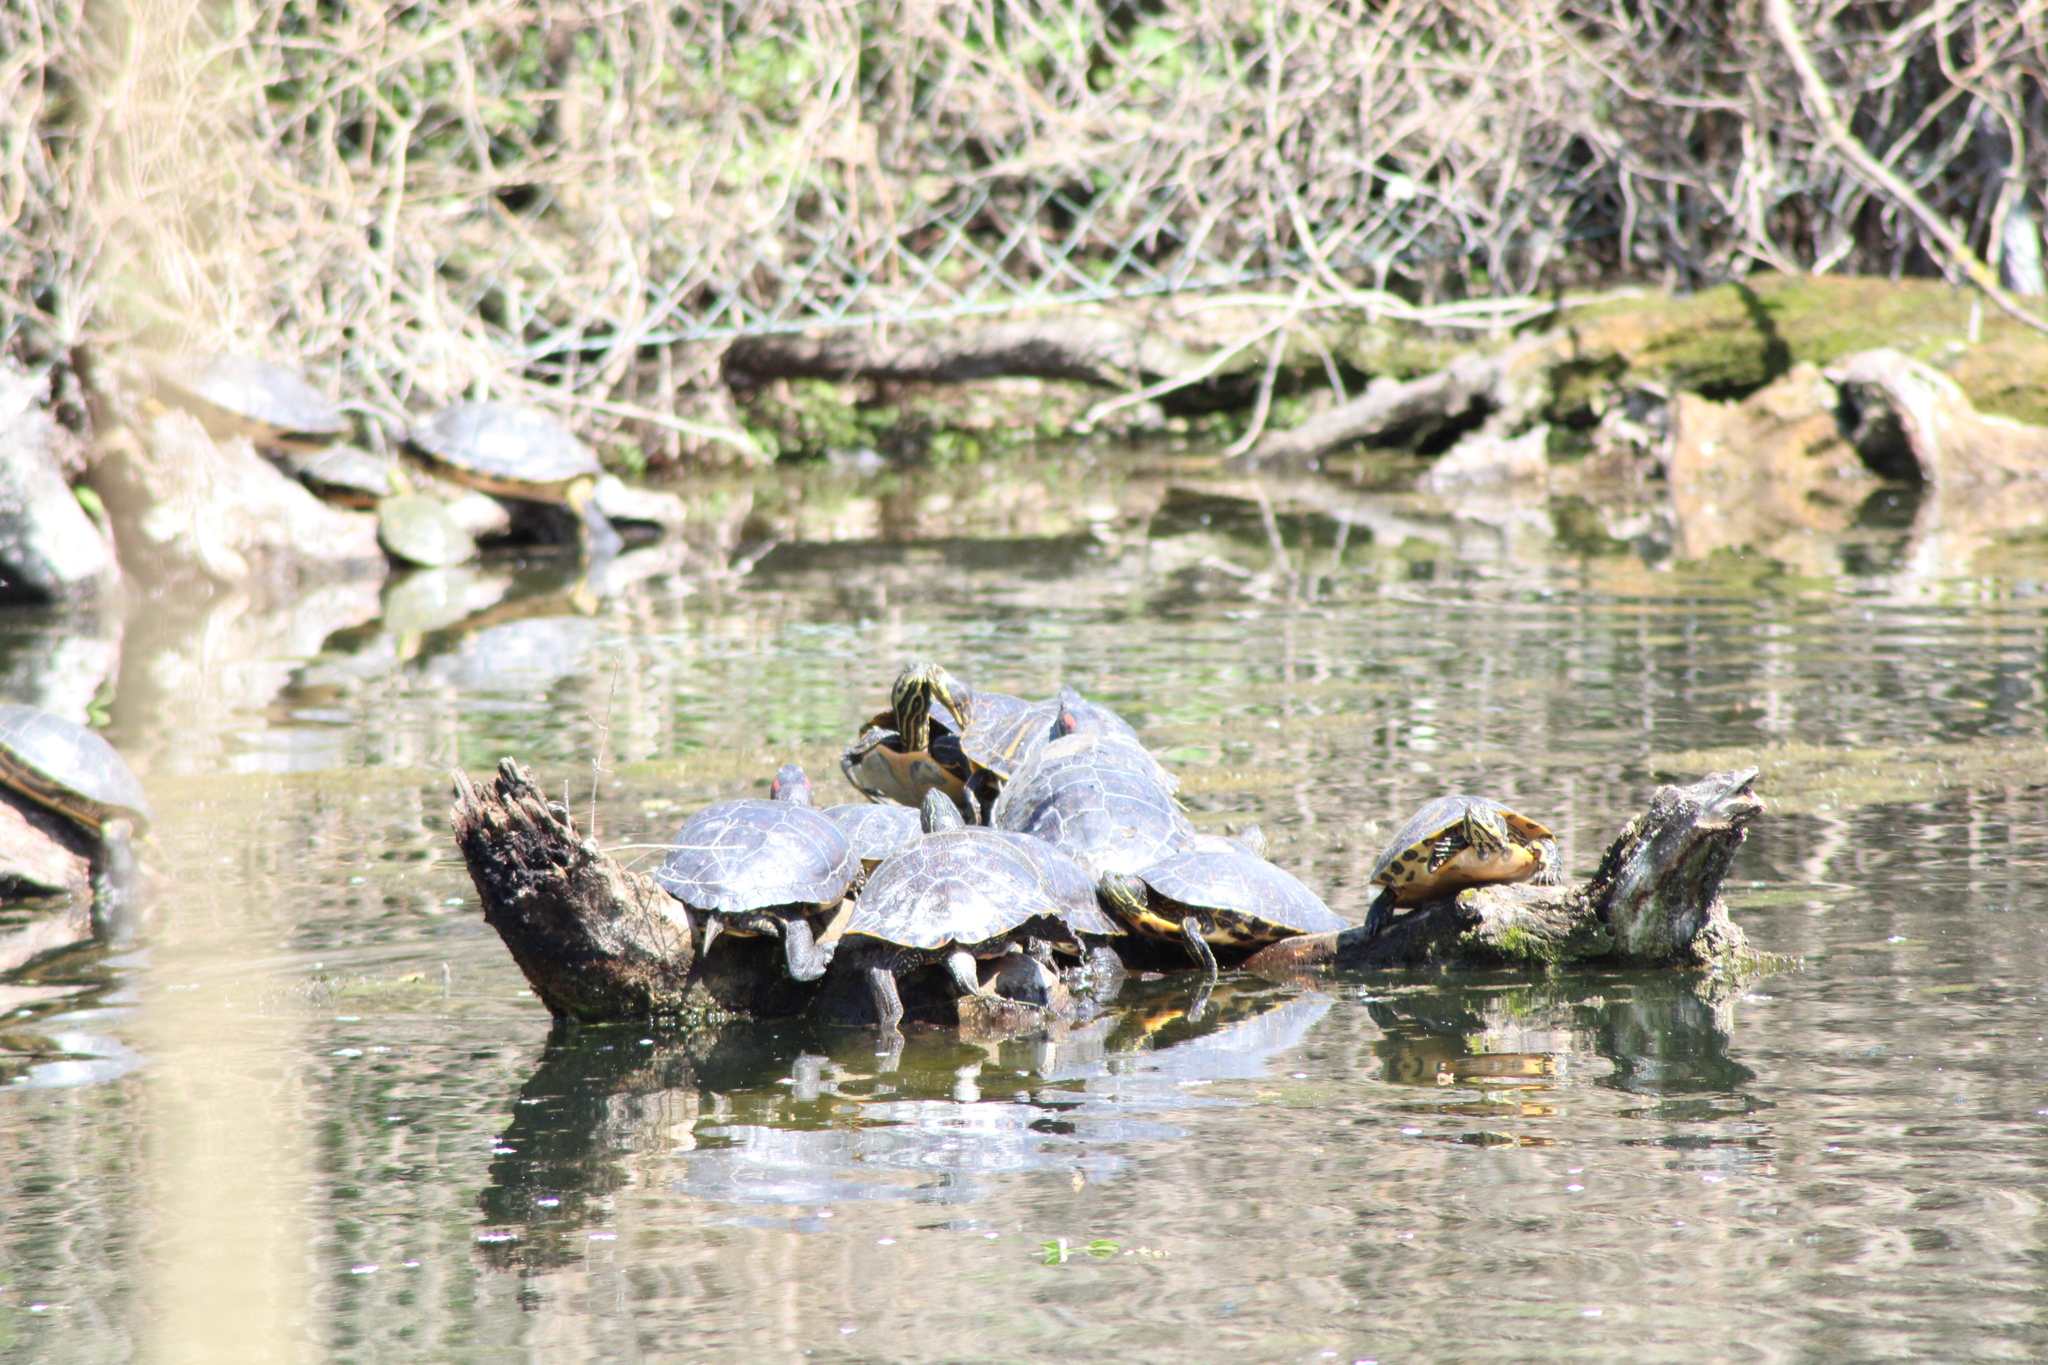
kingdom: Animalia
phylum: Chordata
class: Testudines
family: Emydidae
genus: Trachemys
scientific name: Trachemys scripta
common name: Slider
